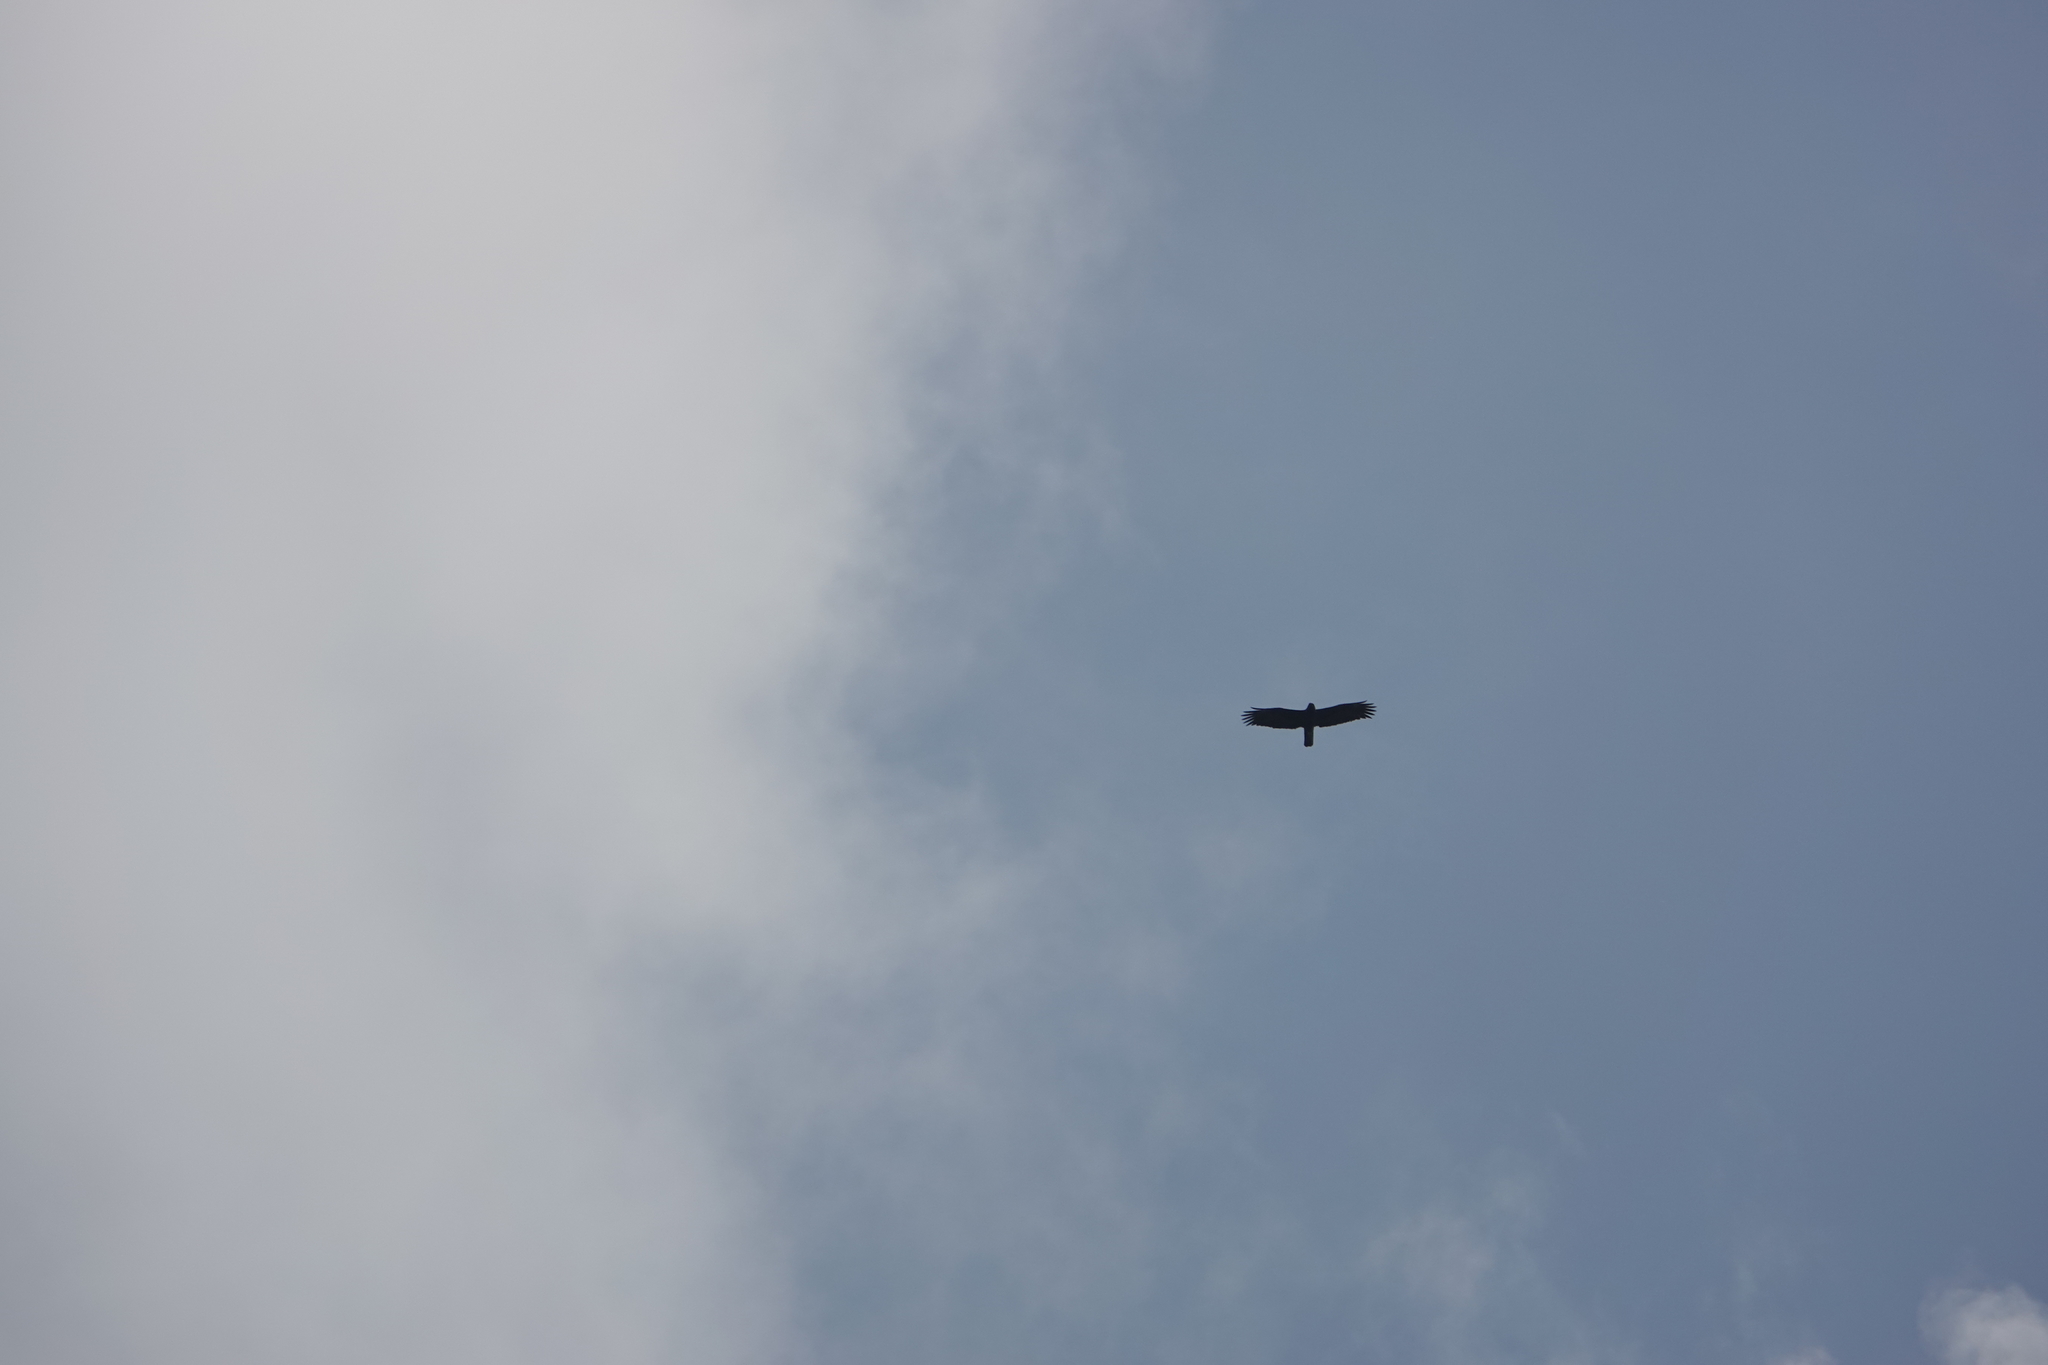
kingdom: Animalia
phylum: Chordata
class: Aves
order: Accipitriformes
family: Accipitridae
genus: Hieraaetus
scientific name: Hieraaetus wahlbergi
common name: Wahlberg's eagle
